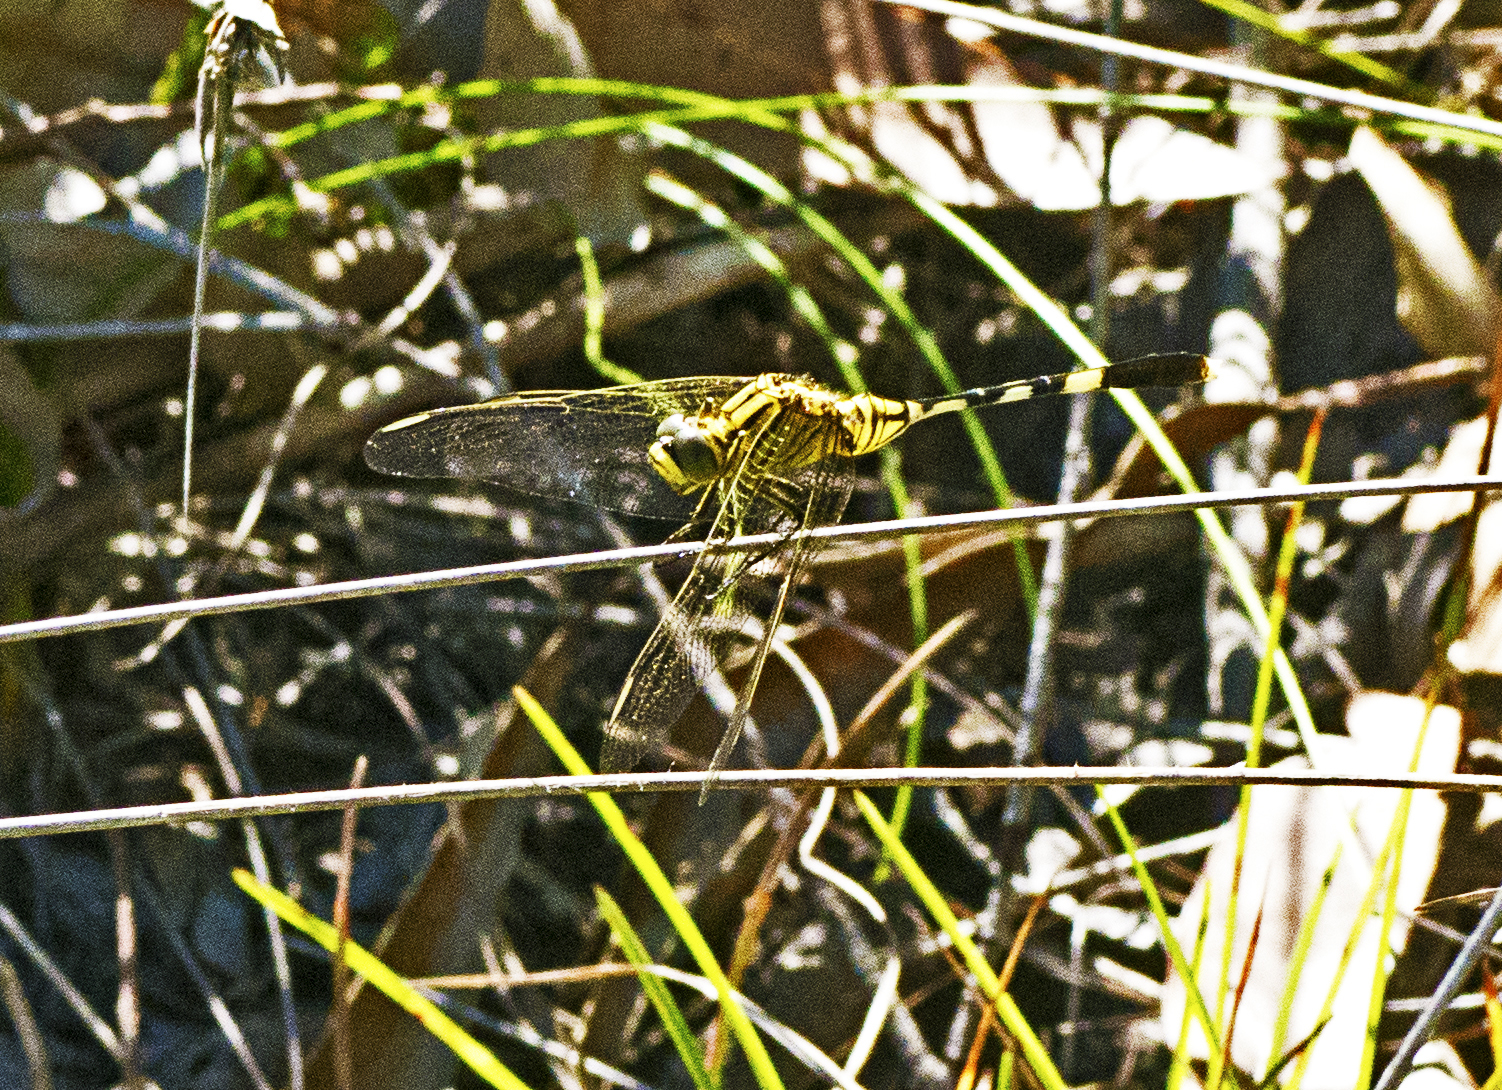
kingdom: Animalia
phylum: Arthropoda
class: Insecta
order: Odonata
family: Libellulidae
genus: Orthetrum
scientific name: Orthetrum sabina
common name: Slender skimmer
